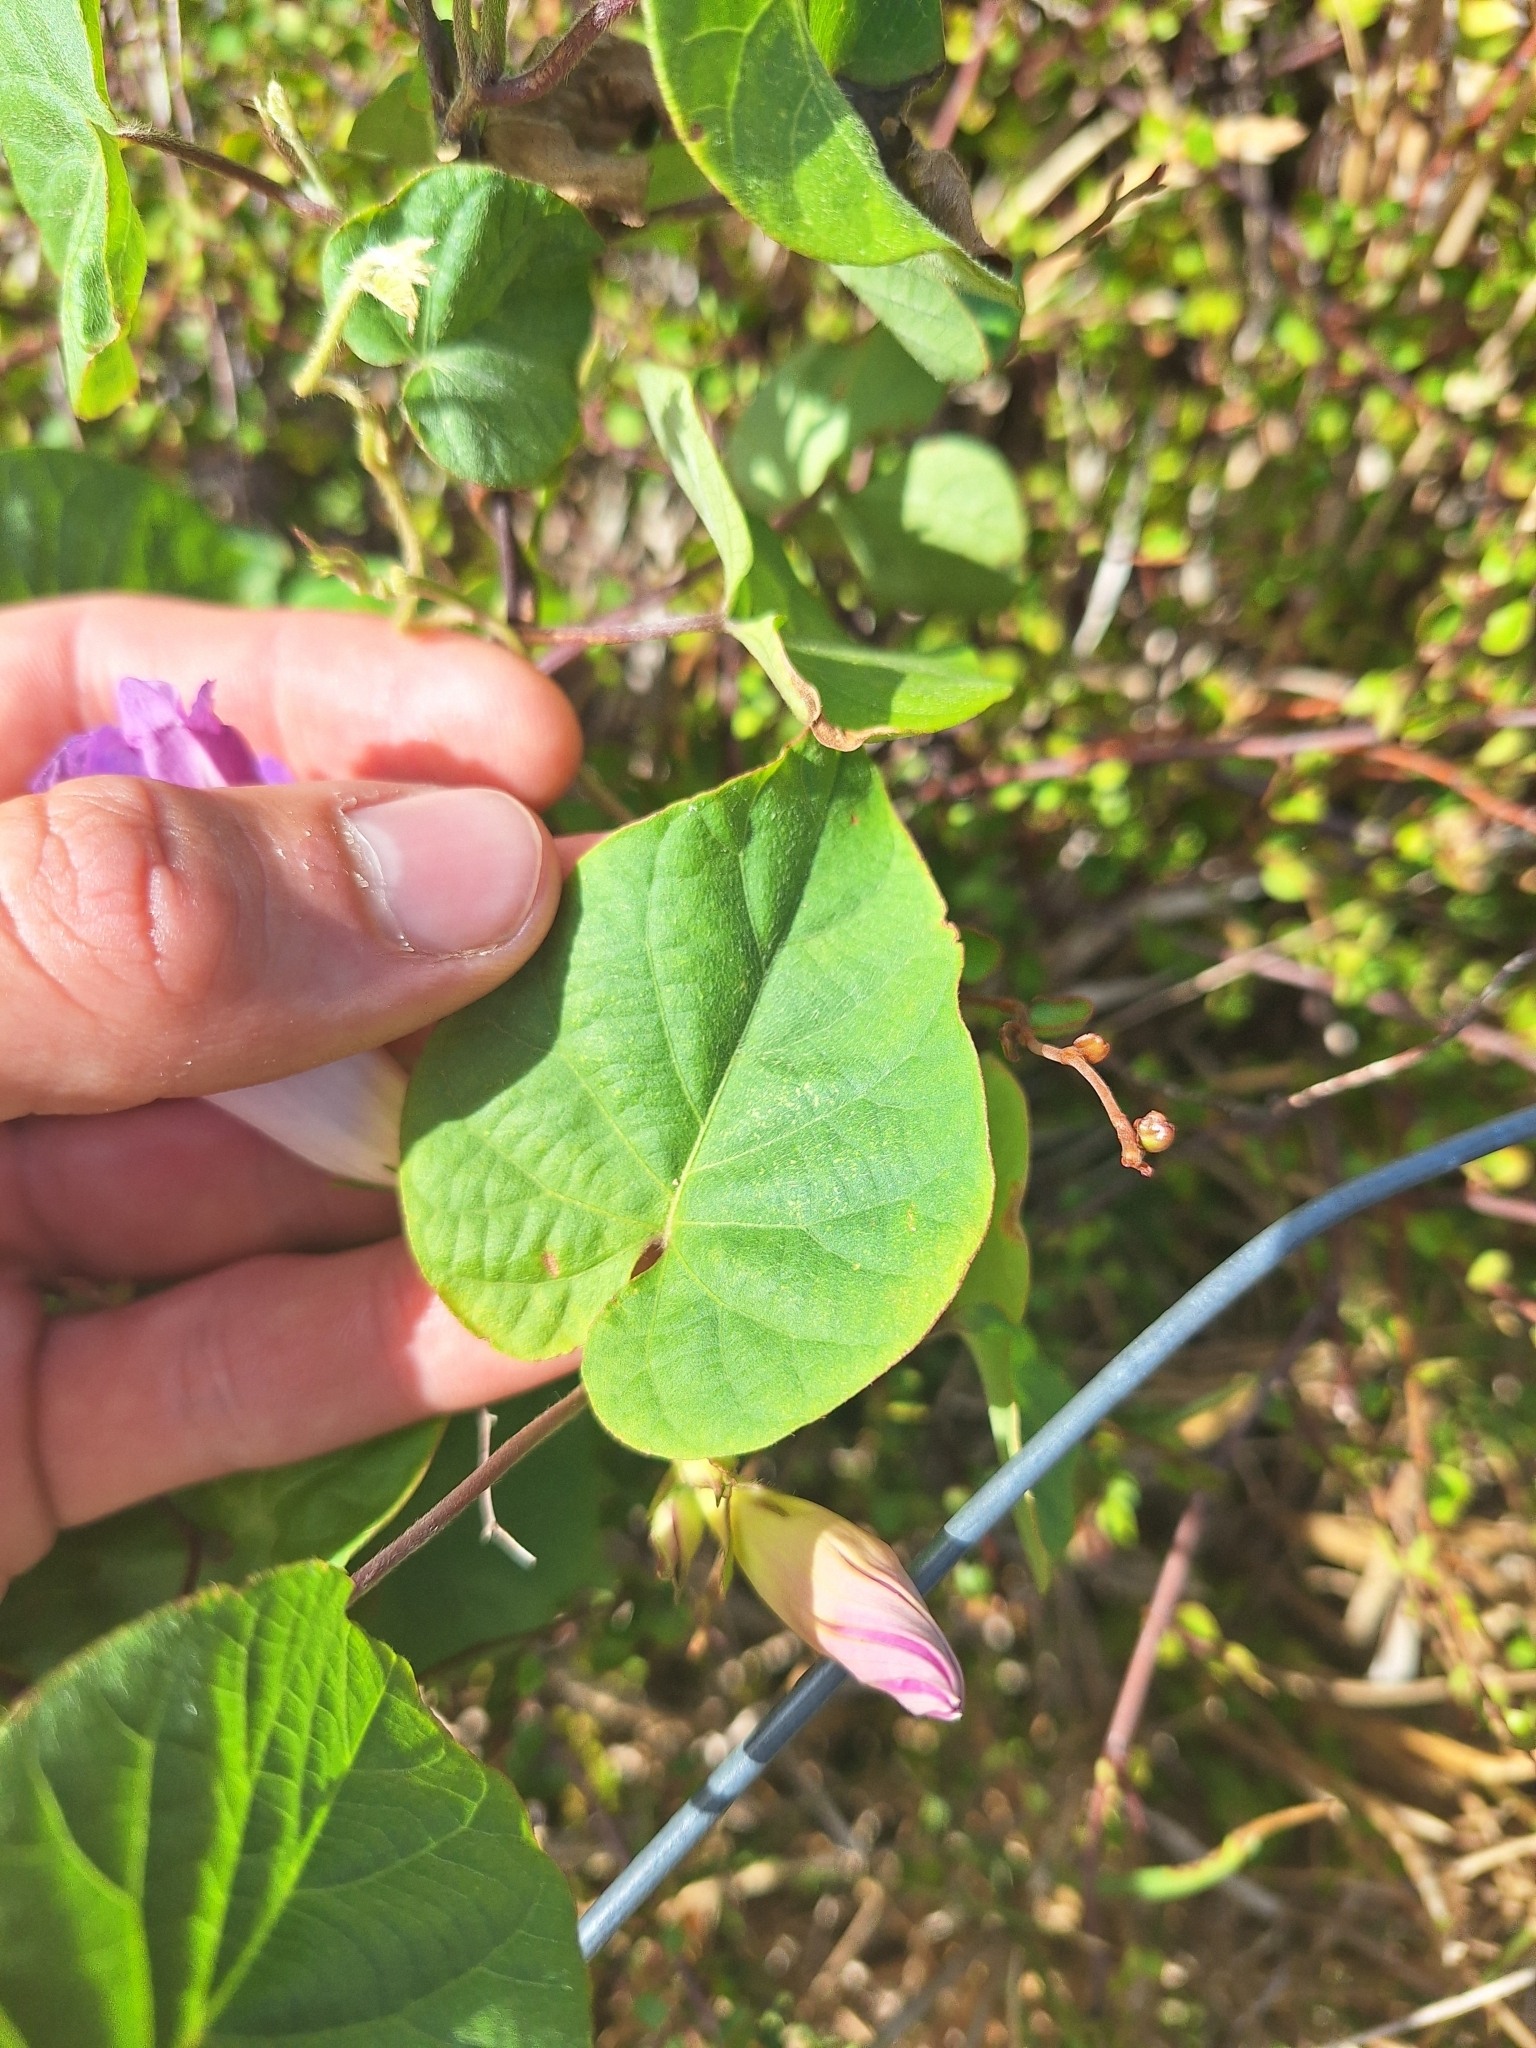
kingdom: Plantae
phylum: Tracheophyta
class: Magnoliopsida
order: Solanales
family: Convolvulaceae
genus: Ipomoea
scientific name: Ipomoea indica
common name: Blue dawnflower
